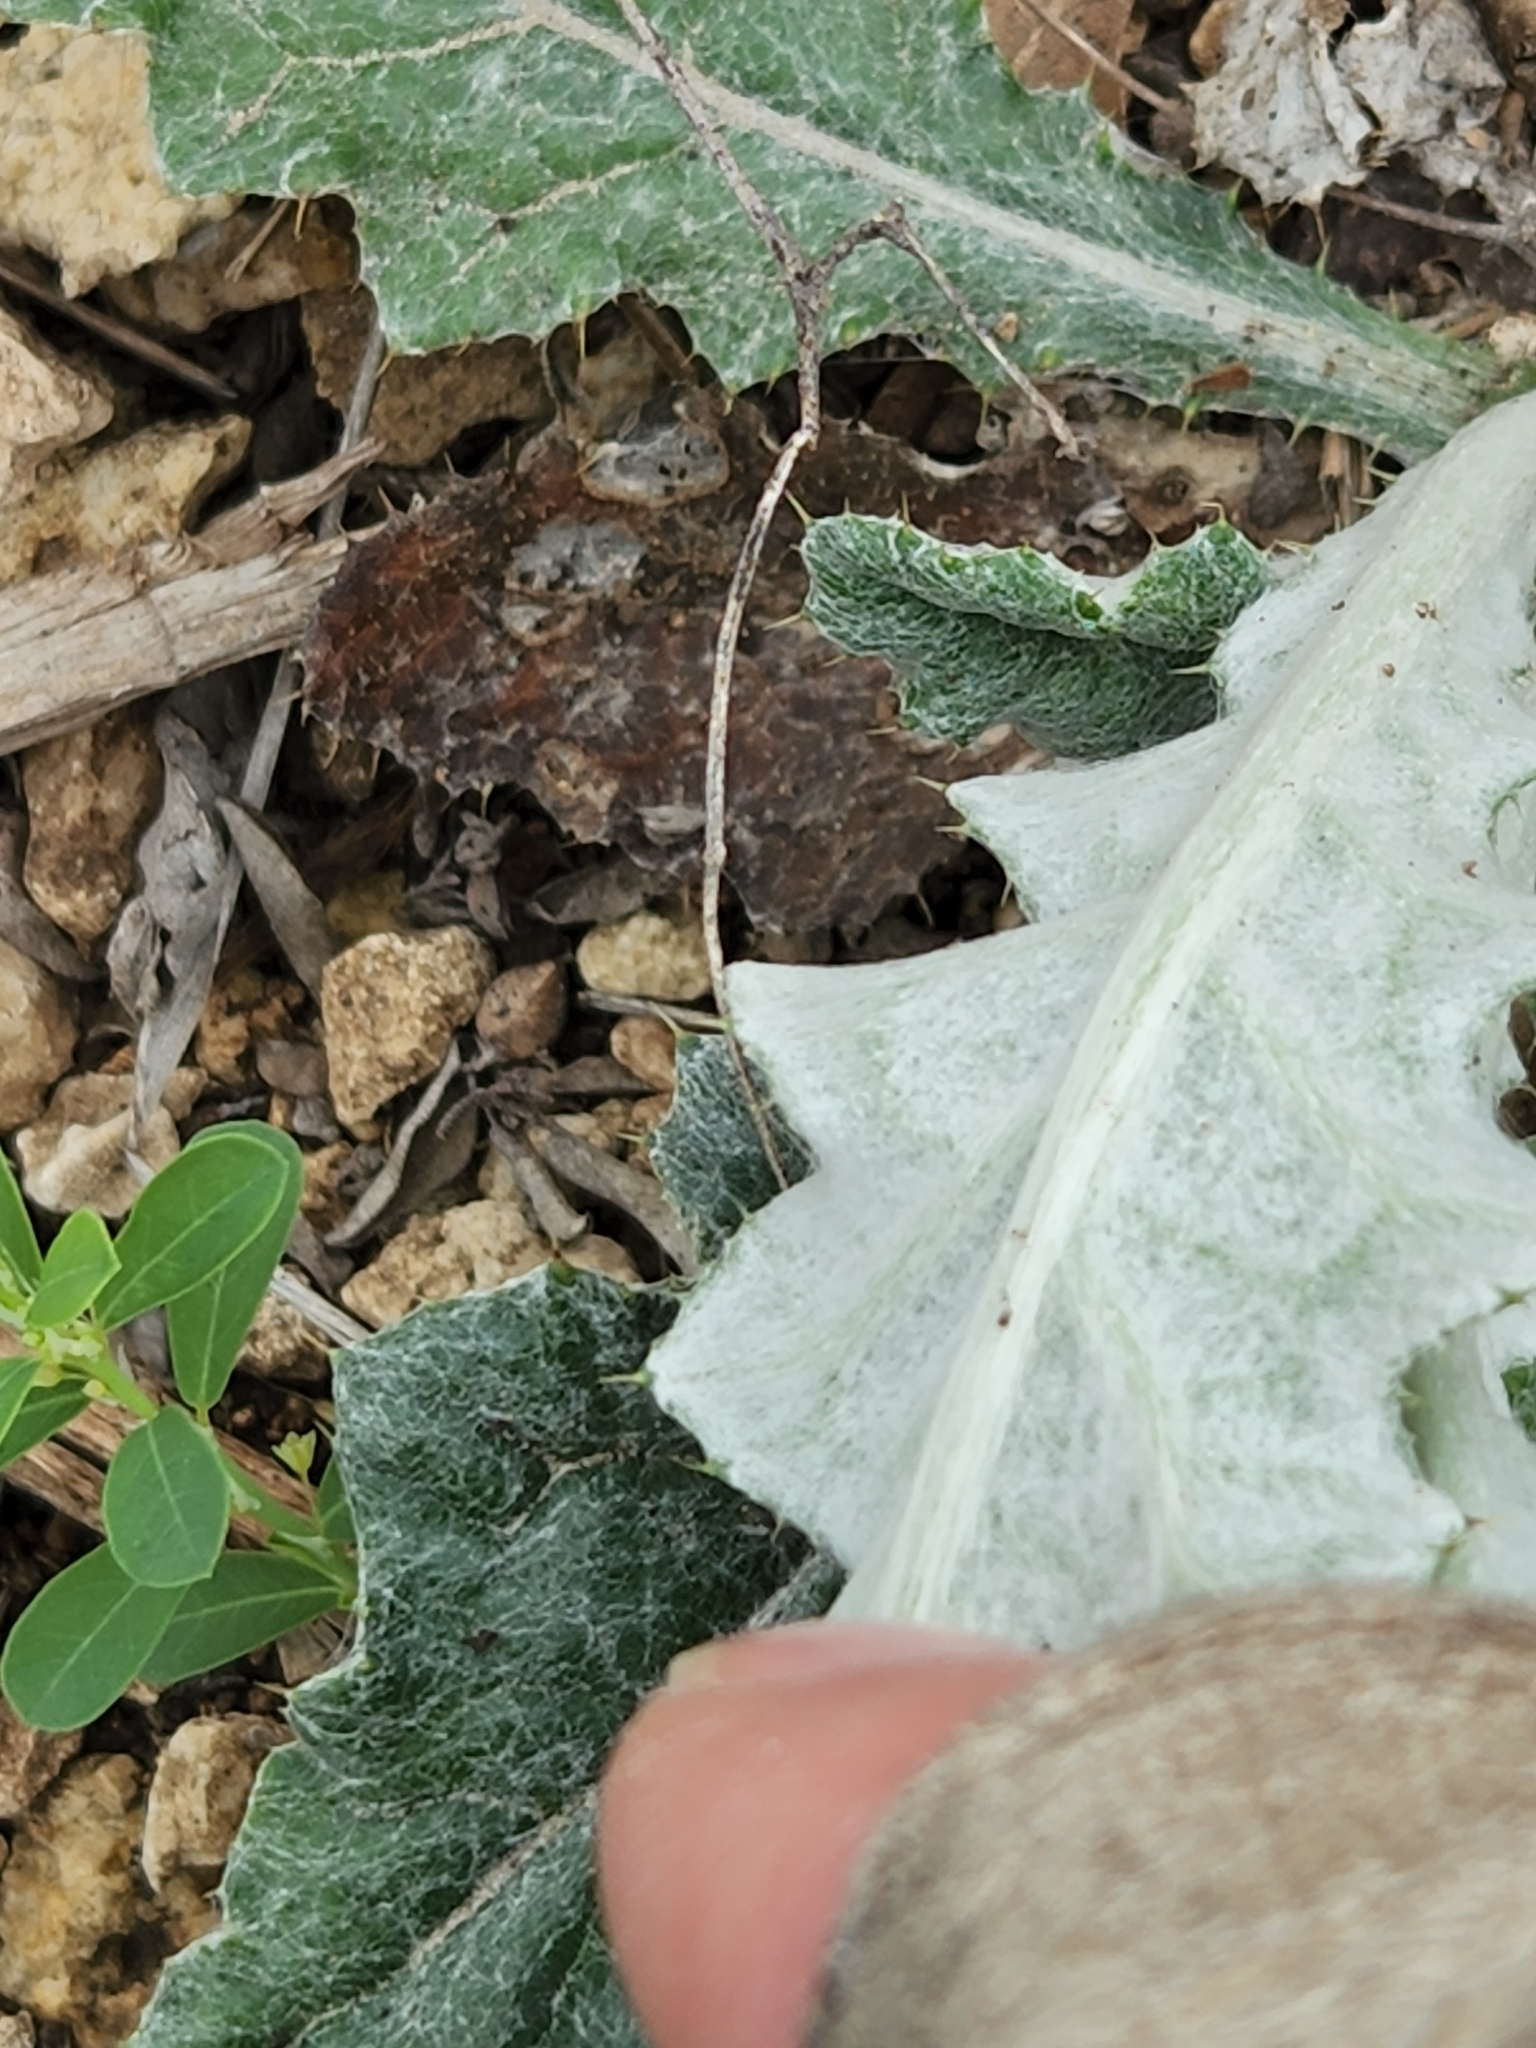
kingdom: Plantae
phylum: Tracheophyta
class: Magnoliopsida
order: Asterales
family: Asteraceae
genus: Chaptalia
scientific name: Chaptalia texana
